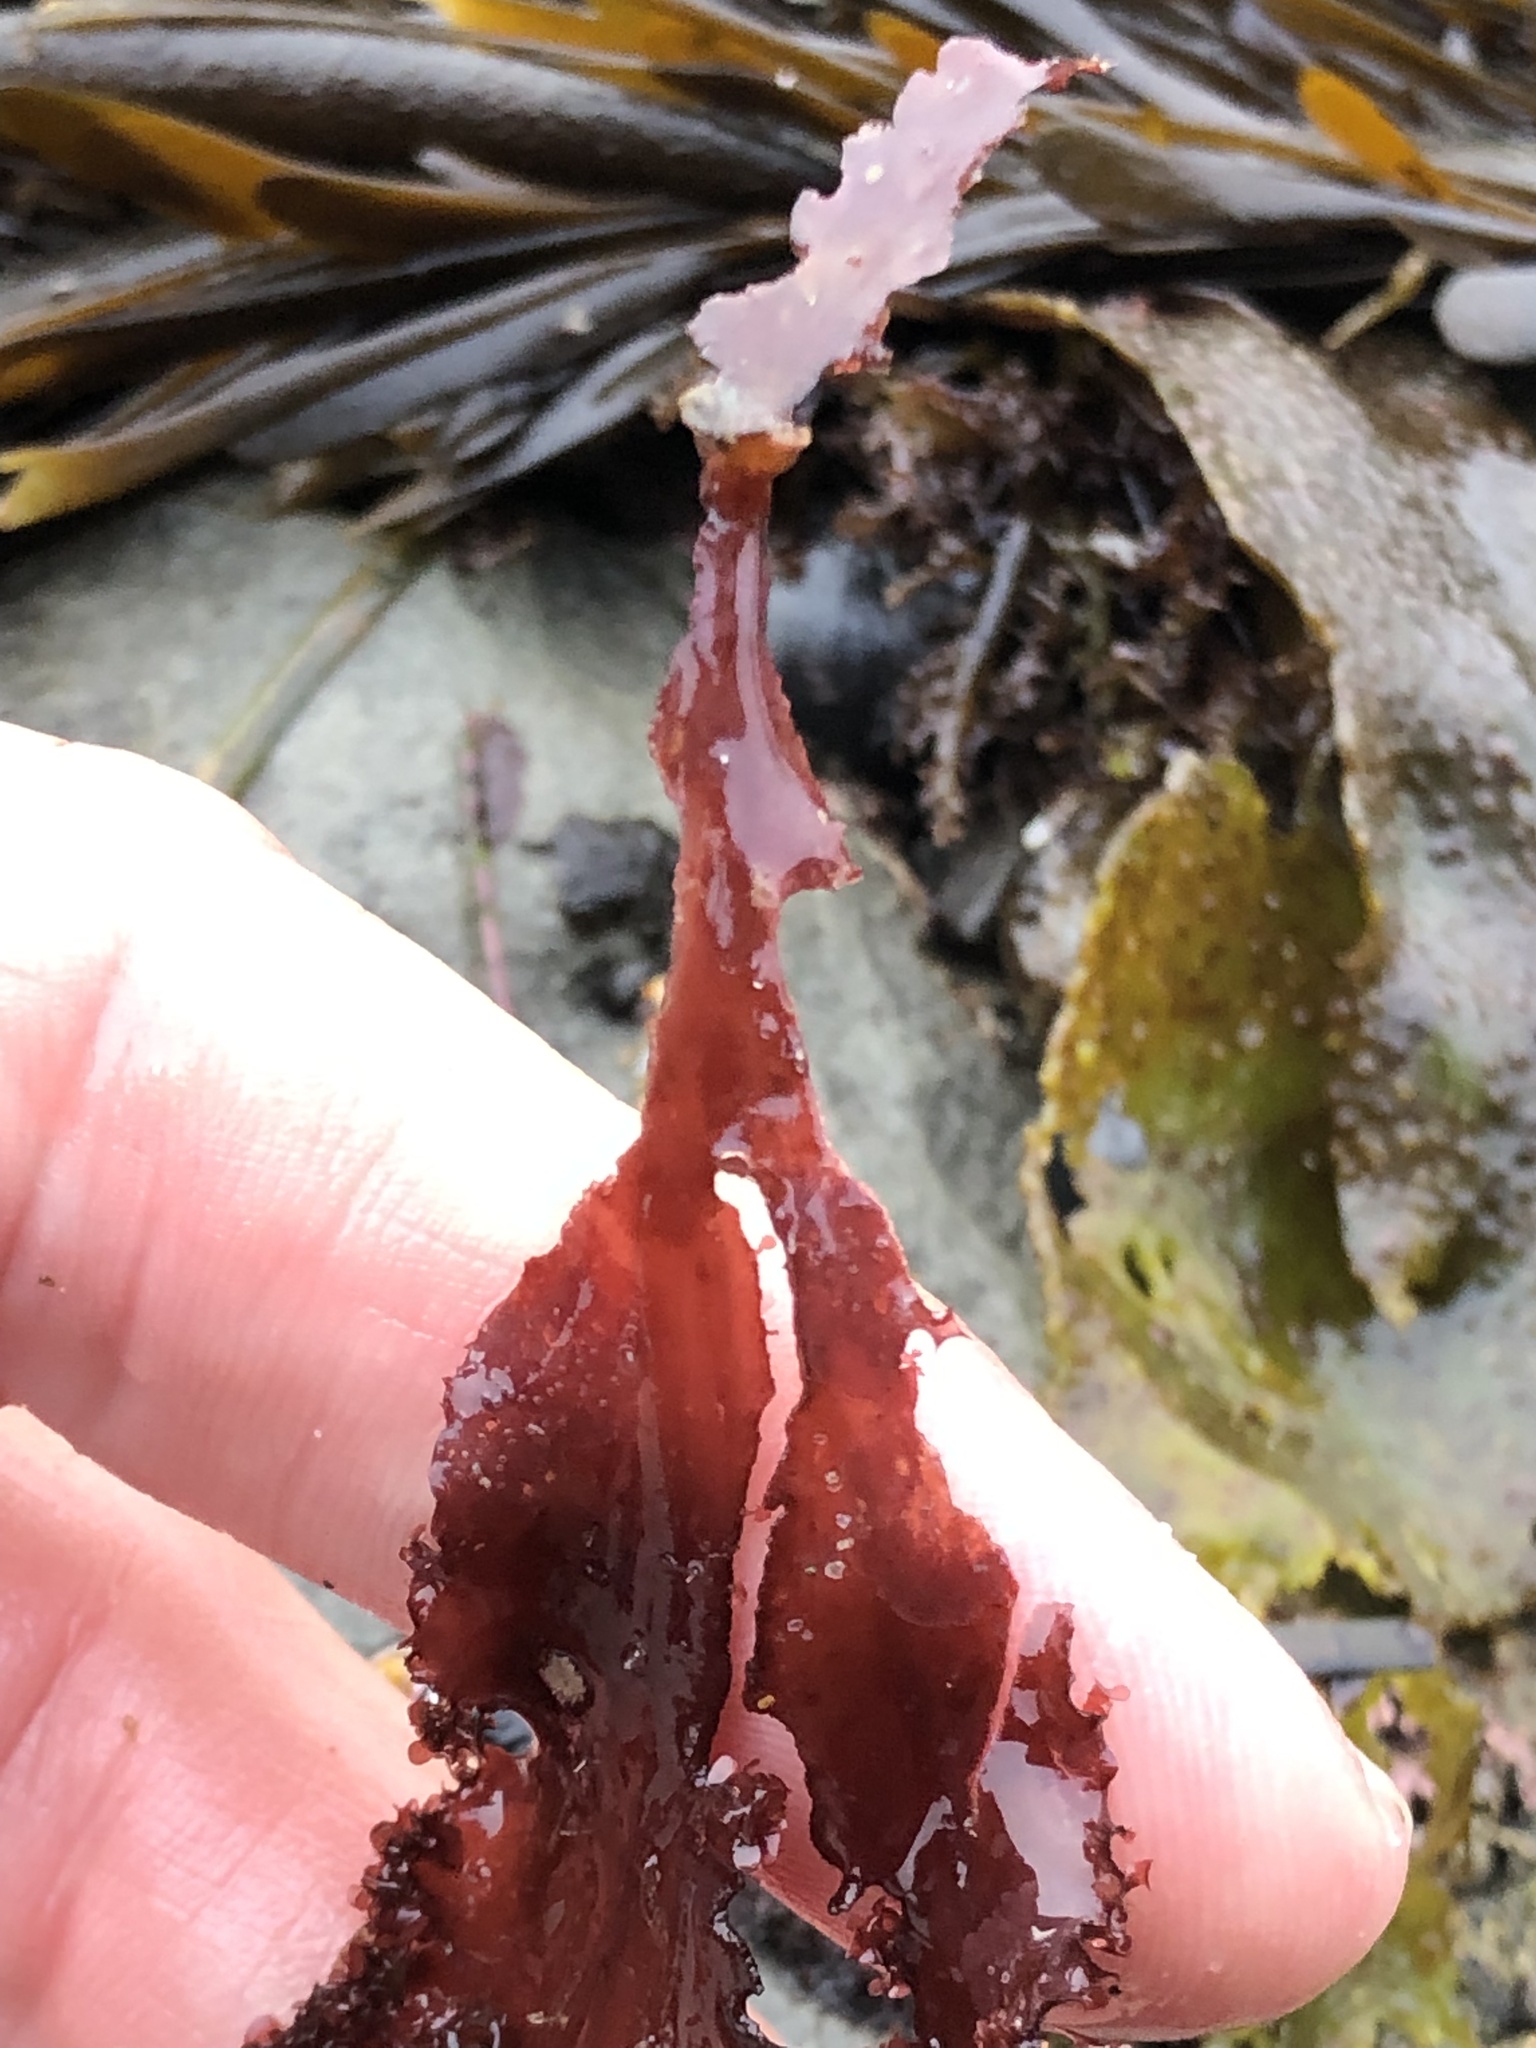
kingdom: Plantae
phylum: Rhodophyta
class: Florideophyceae
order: Ceramiales
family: Delesseriaceae
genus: Cryptopleura
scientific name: Cryptopleura ruprechtiana
